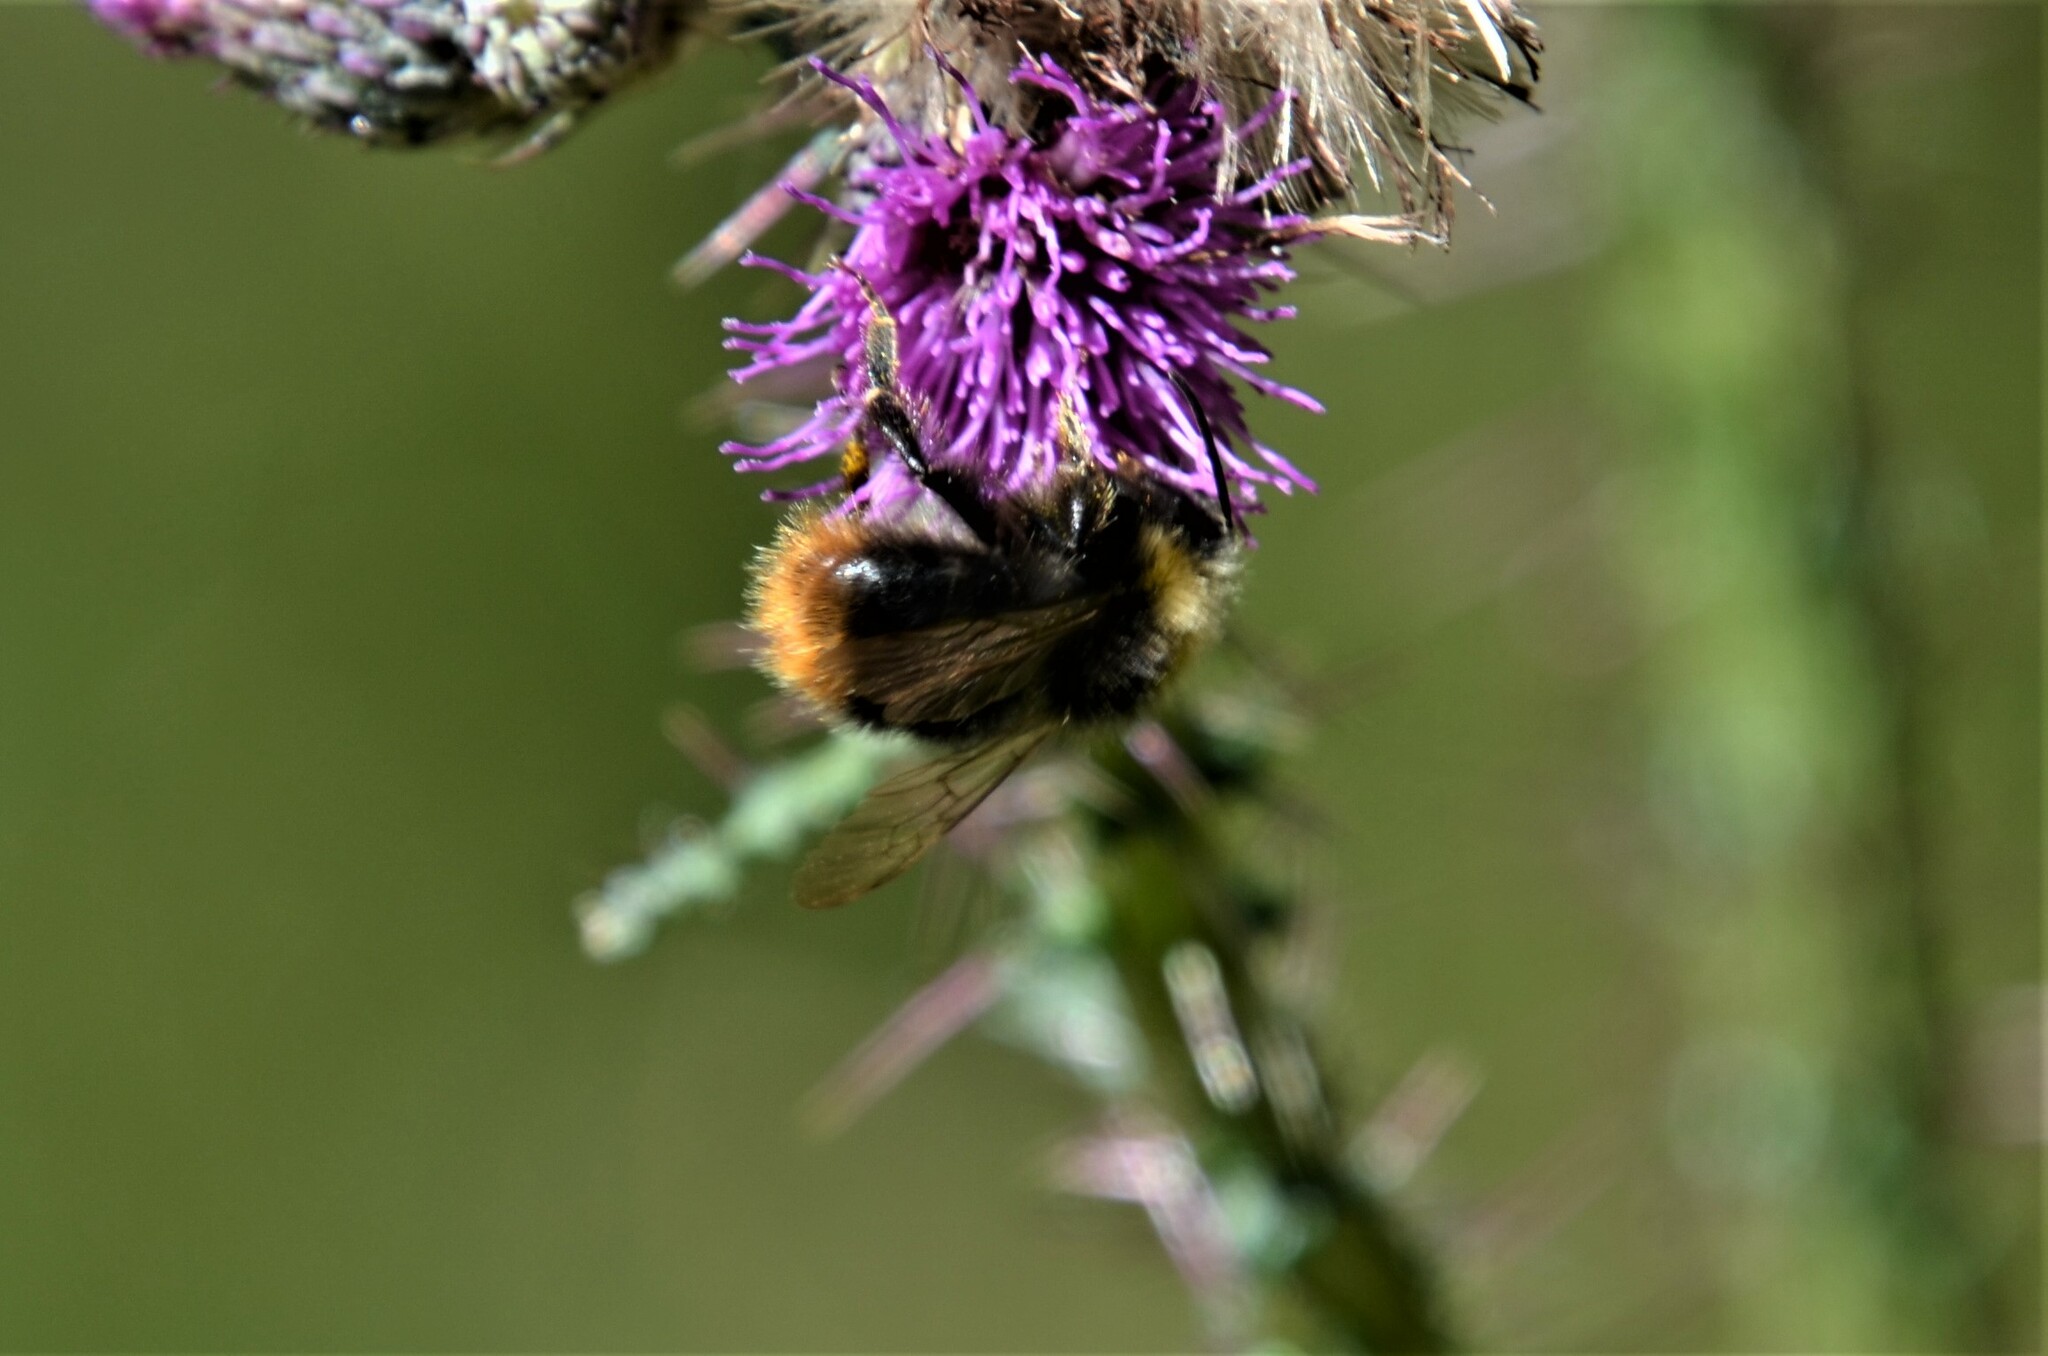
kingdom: Animalia
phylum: Arthropoda
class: Insecta
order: Hymenoptera
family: Apidae
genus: Bombus
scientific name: Bombus pratorum
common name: Early humble-bee
